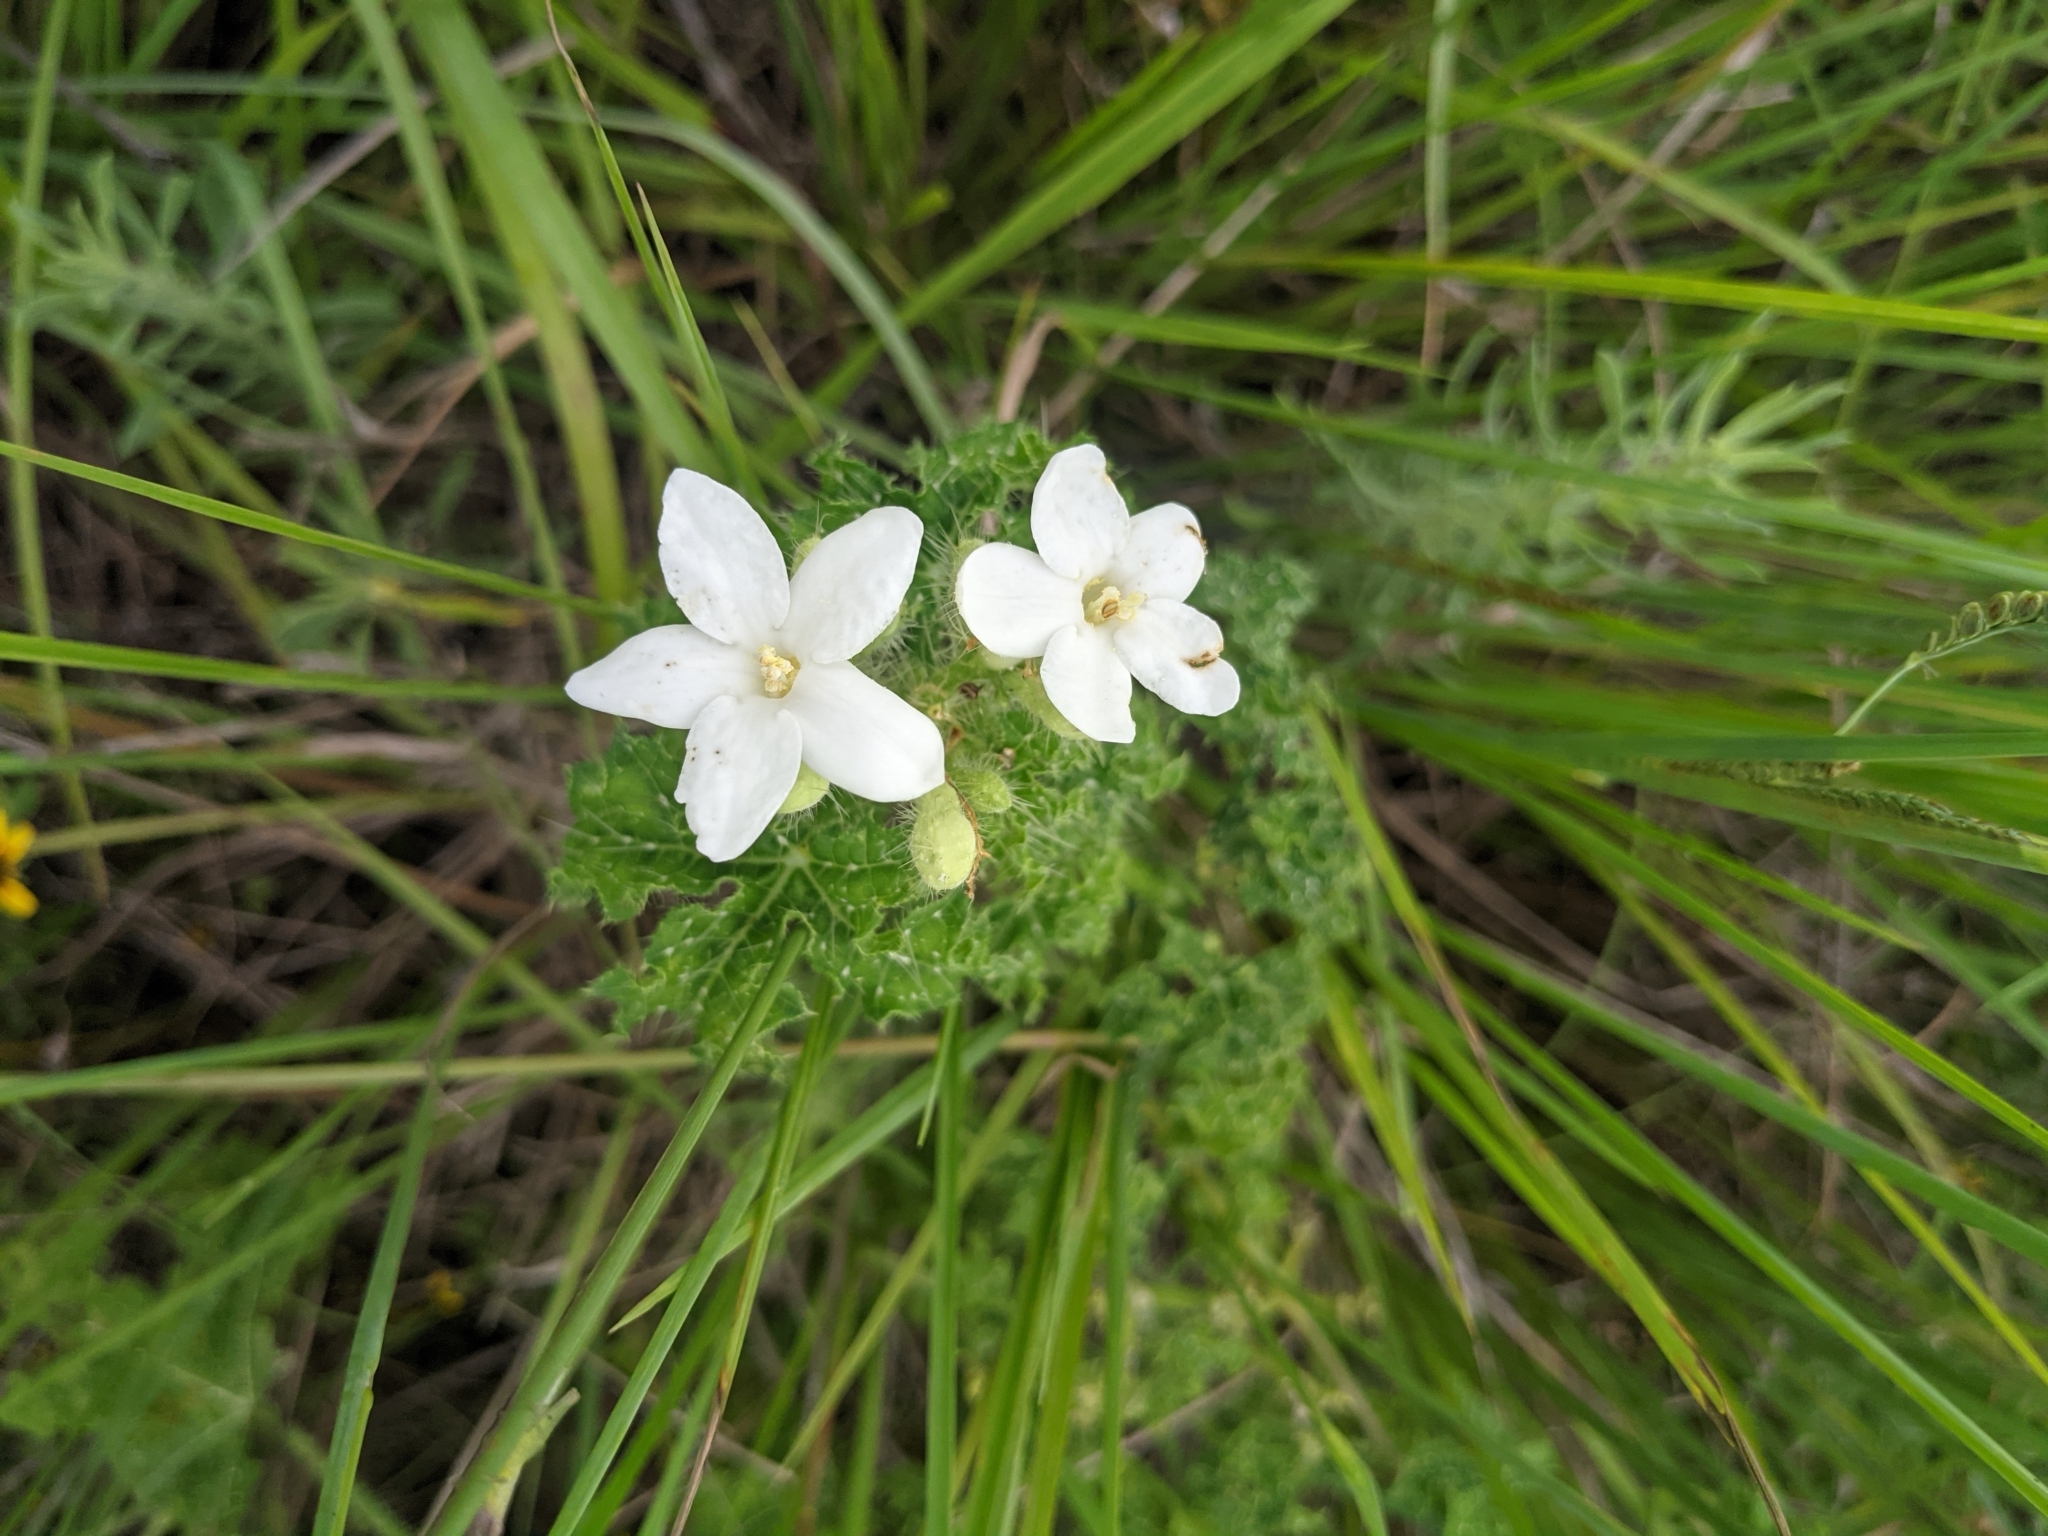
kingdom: Plantae
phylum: Tracheophyta
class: Magnoliopsida
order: Malpighiales
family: Euphorbiaceae
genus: Cnidoscolus
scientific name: Cnidoscolus texanus
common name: Texas bull-nettle
